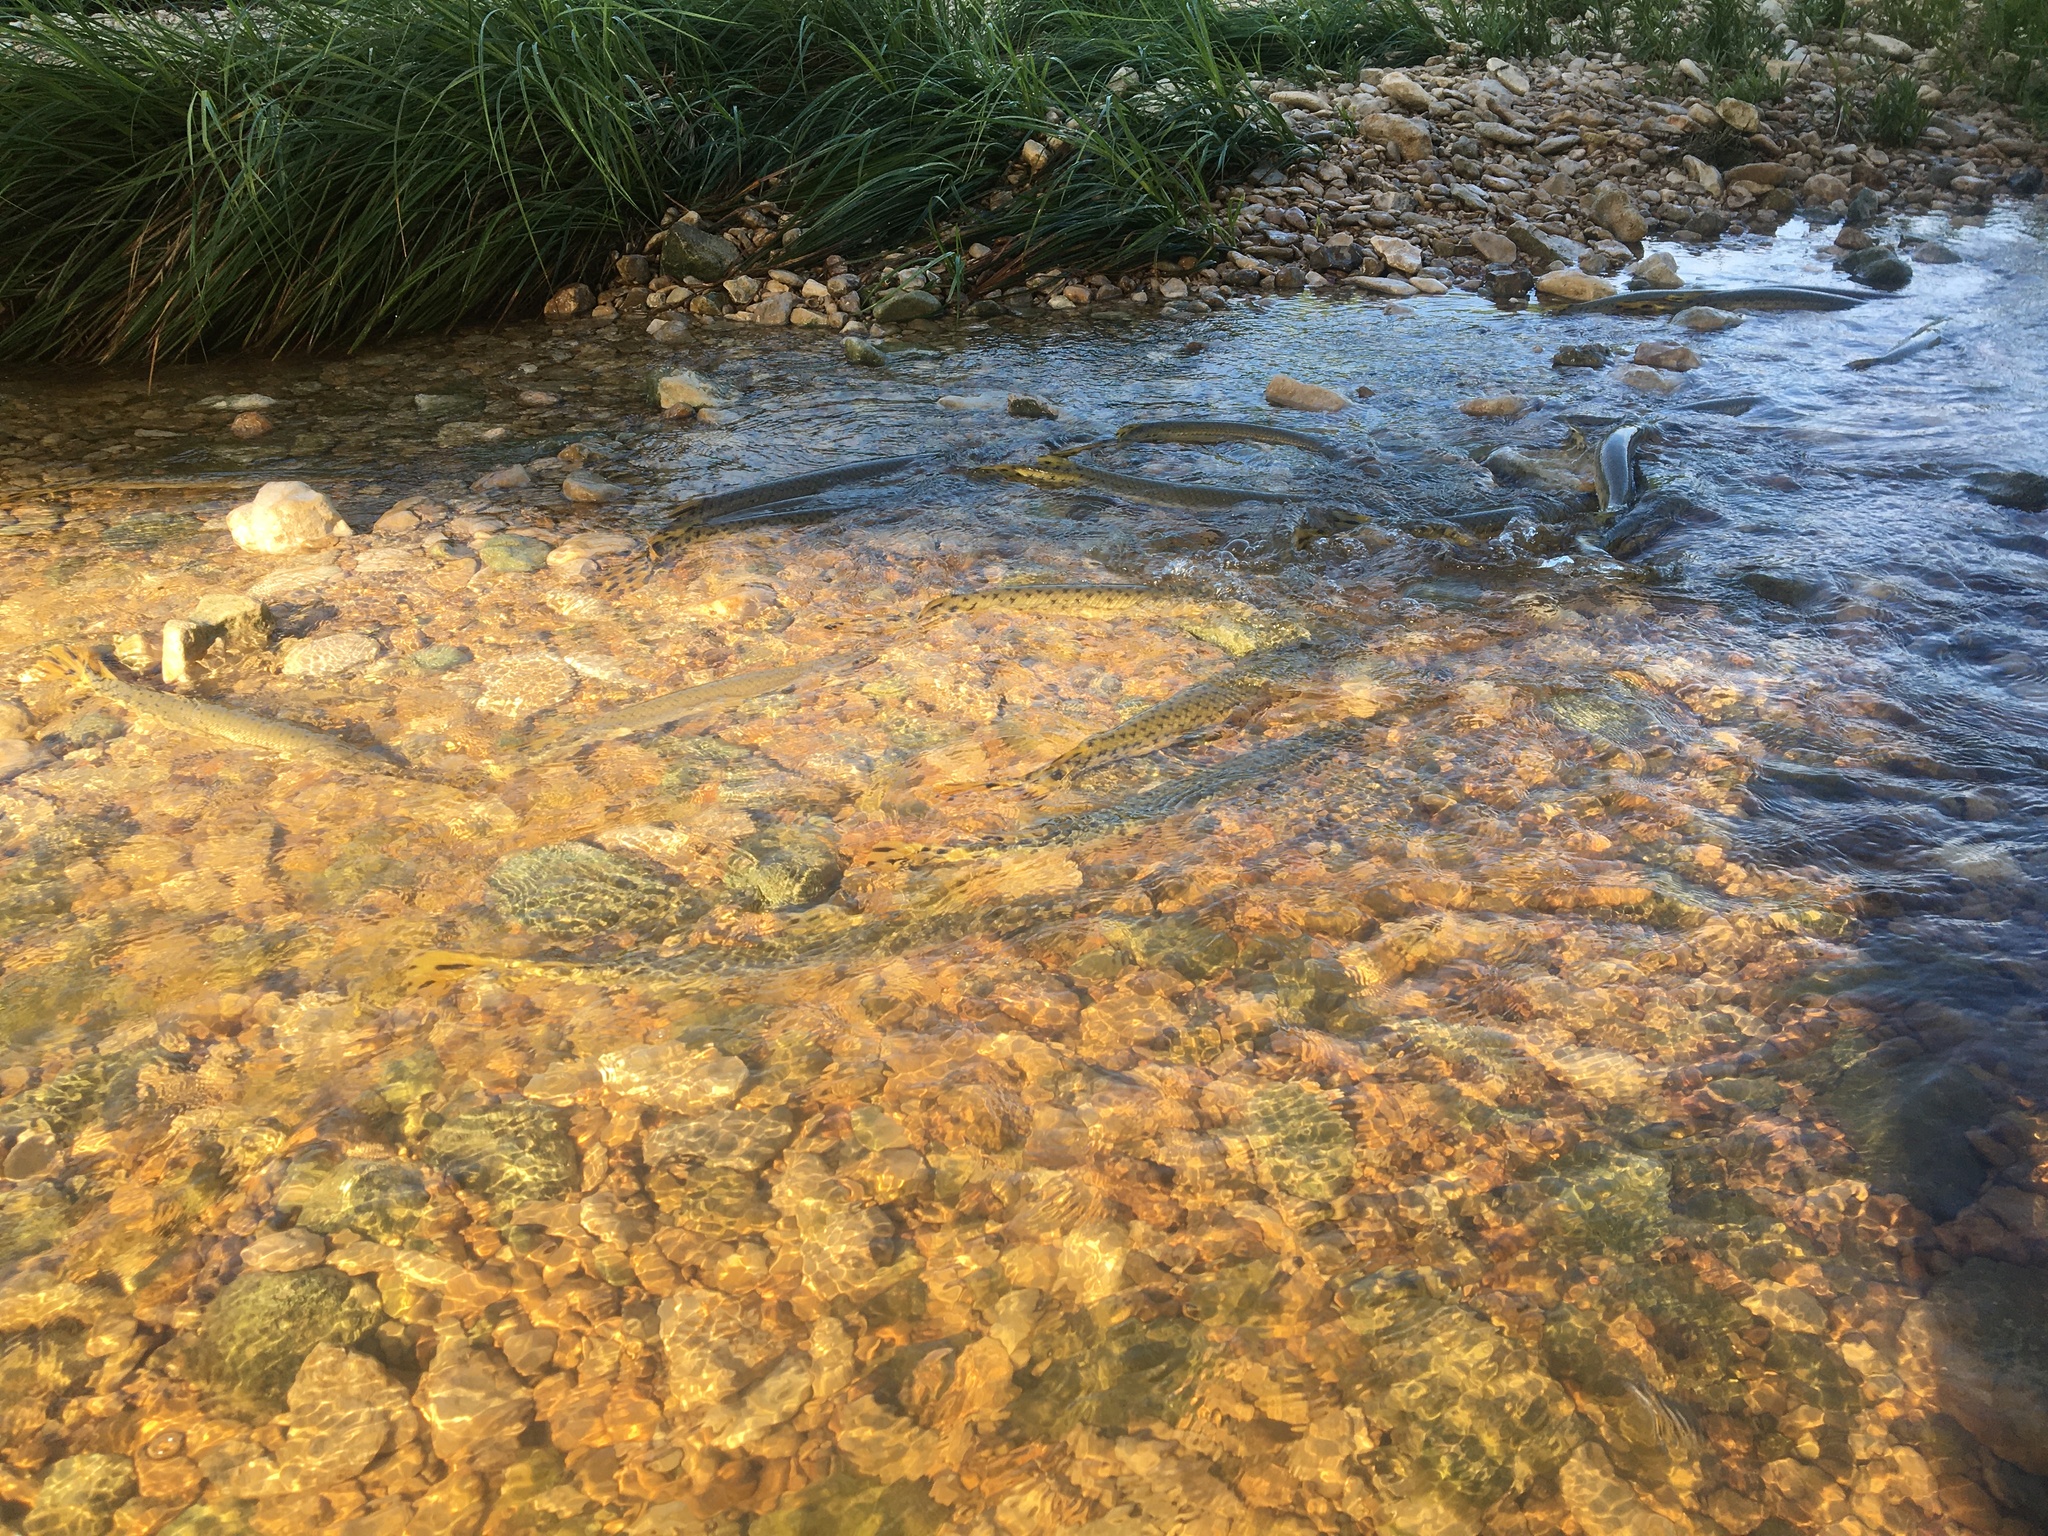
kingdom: Animalia
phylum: Chordata
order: Lepisosteiformes
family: Lepisosteidae
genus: Lepisosteus
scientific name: Lepisosteus osseus
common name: Longnose gar
